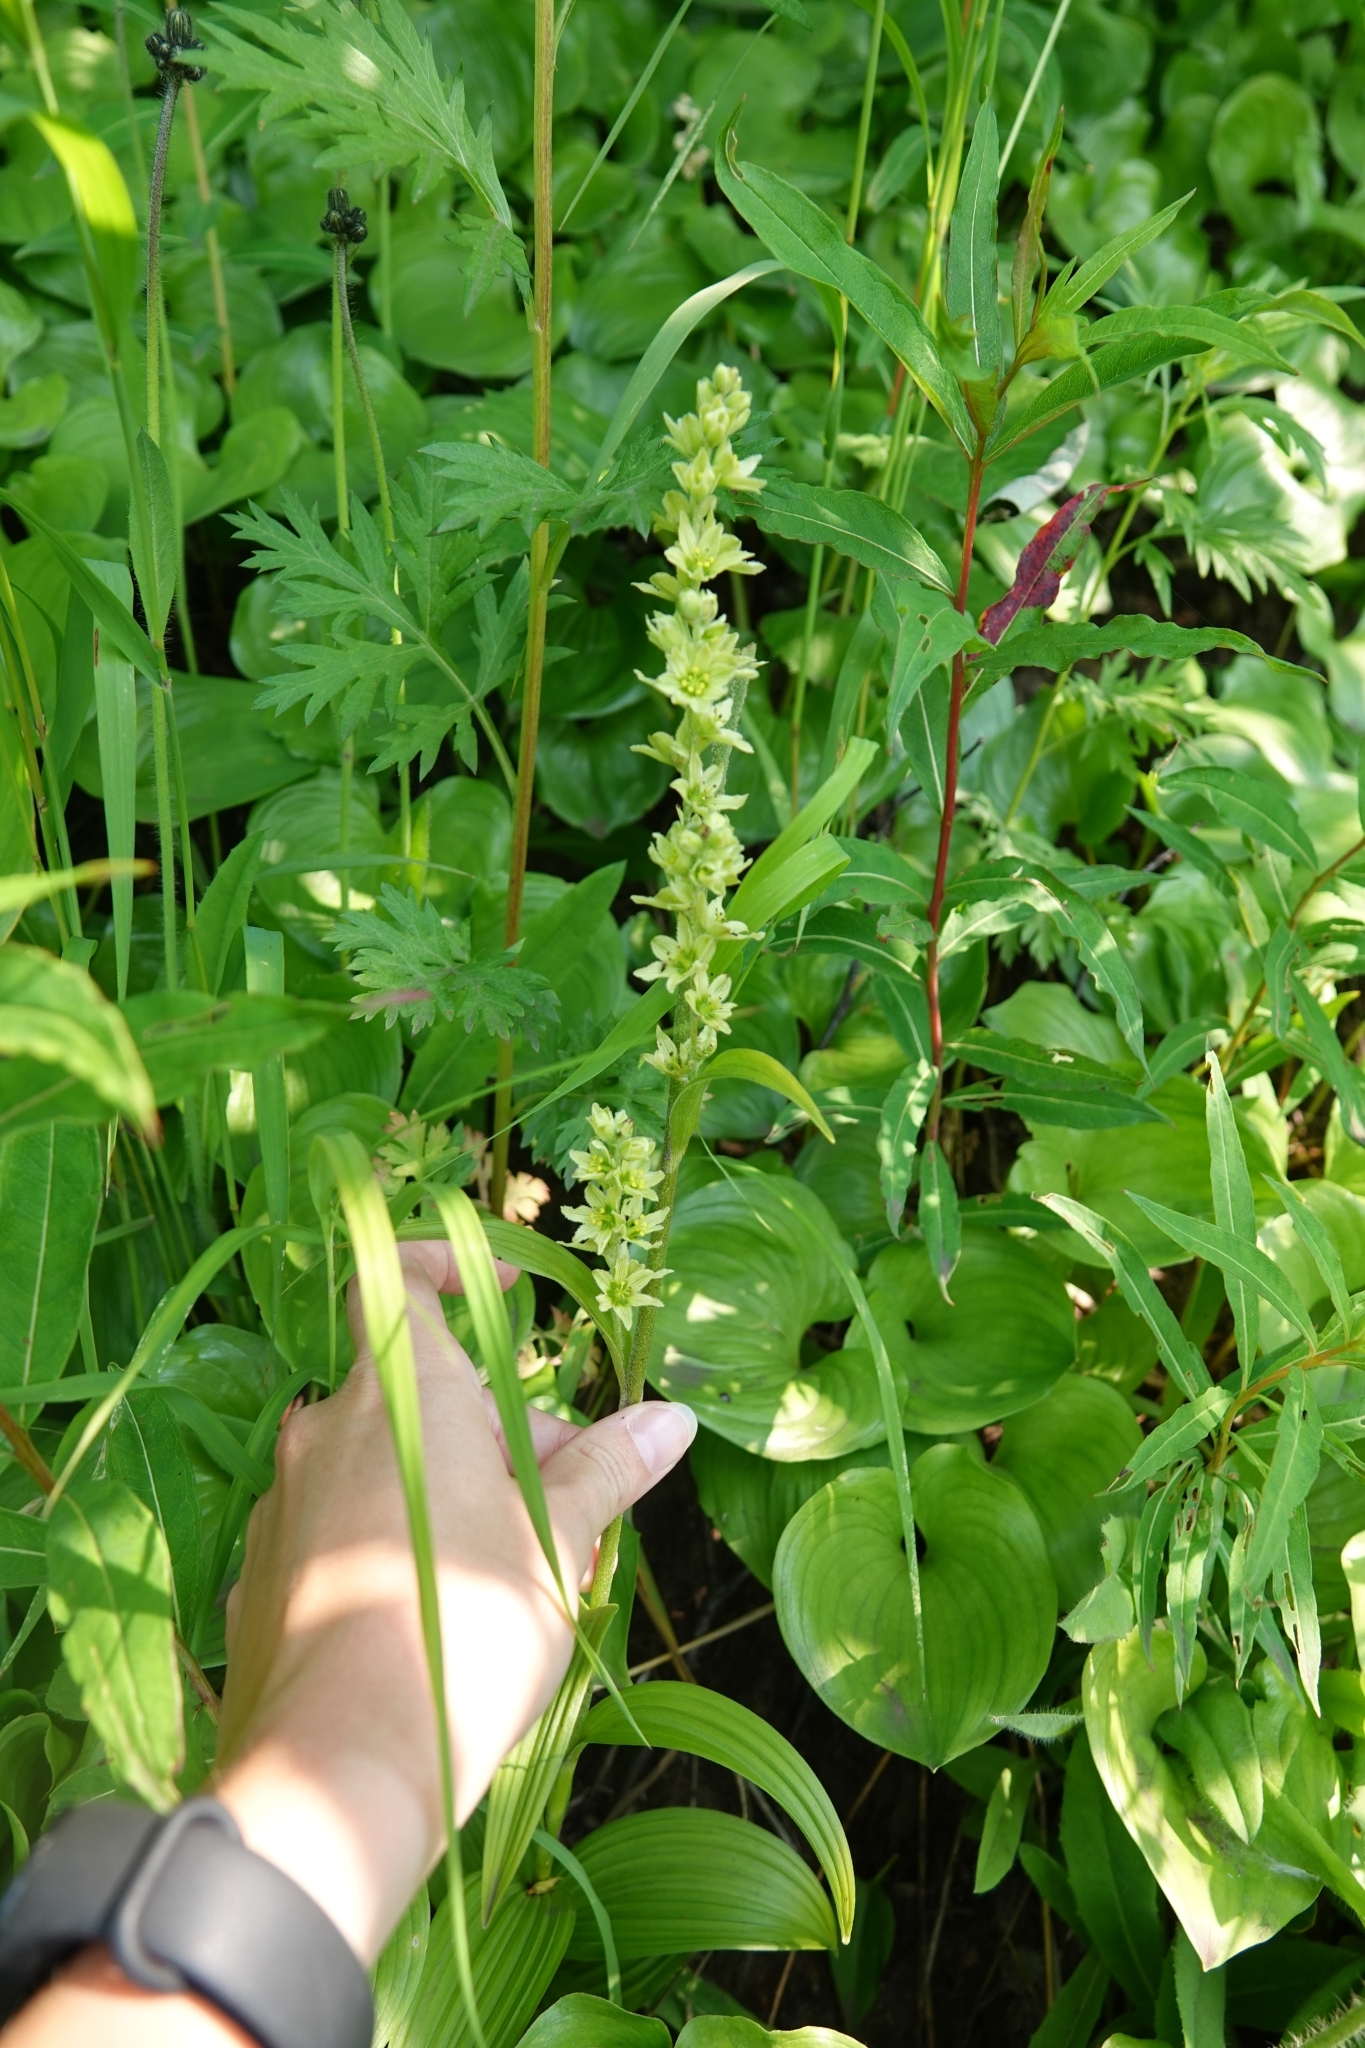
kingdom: Plantae
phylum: Tracheophyta
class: Liliopsida
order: Liliales
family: Melanthiaceae
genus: Veratrum
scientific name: Veratrum oxysepalum
